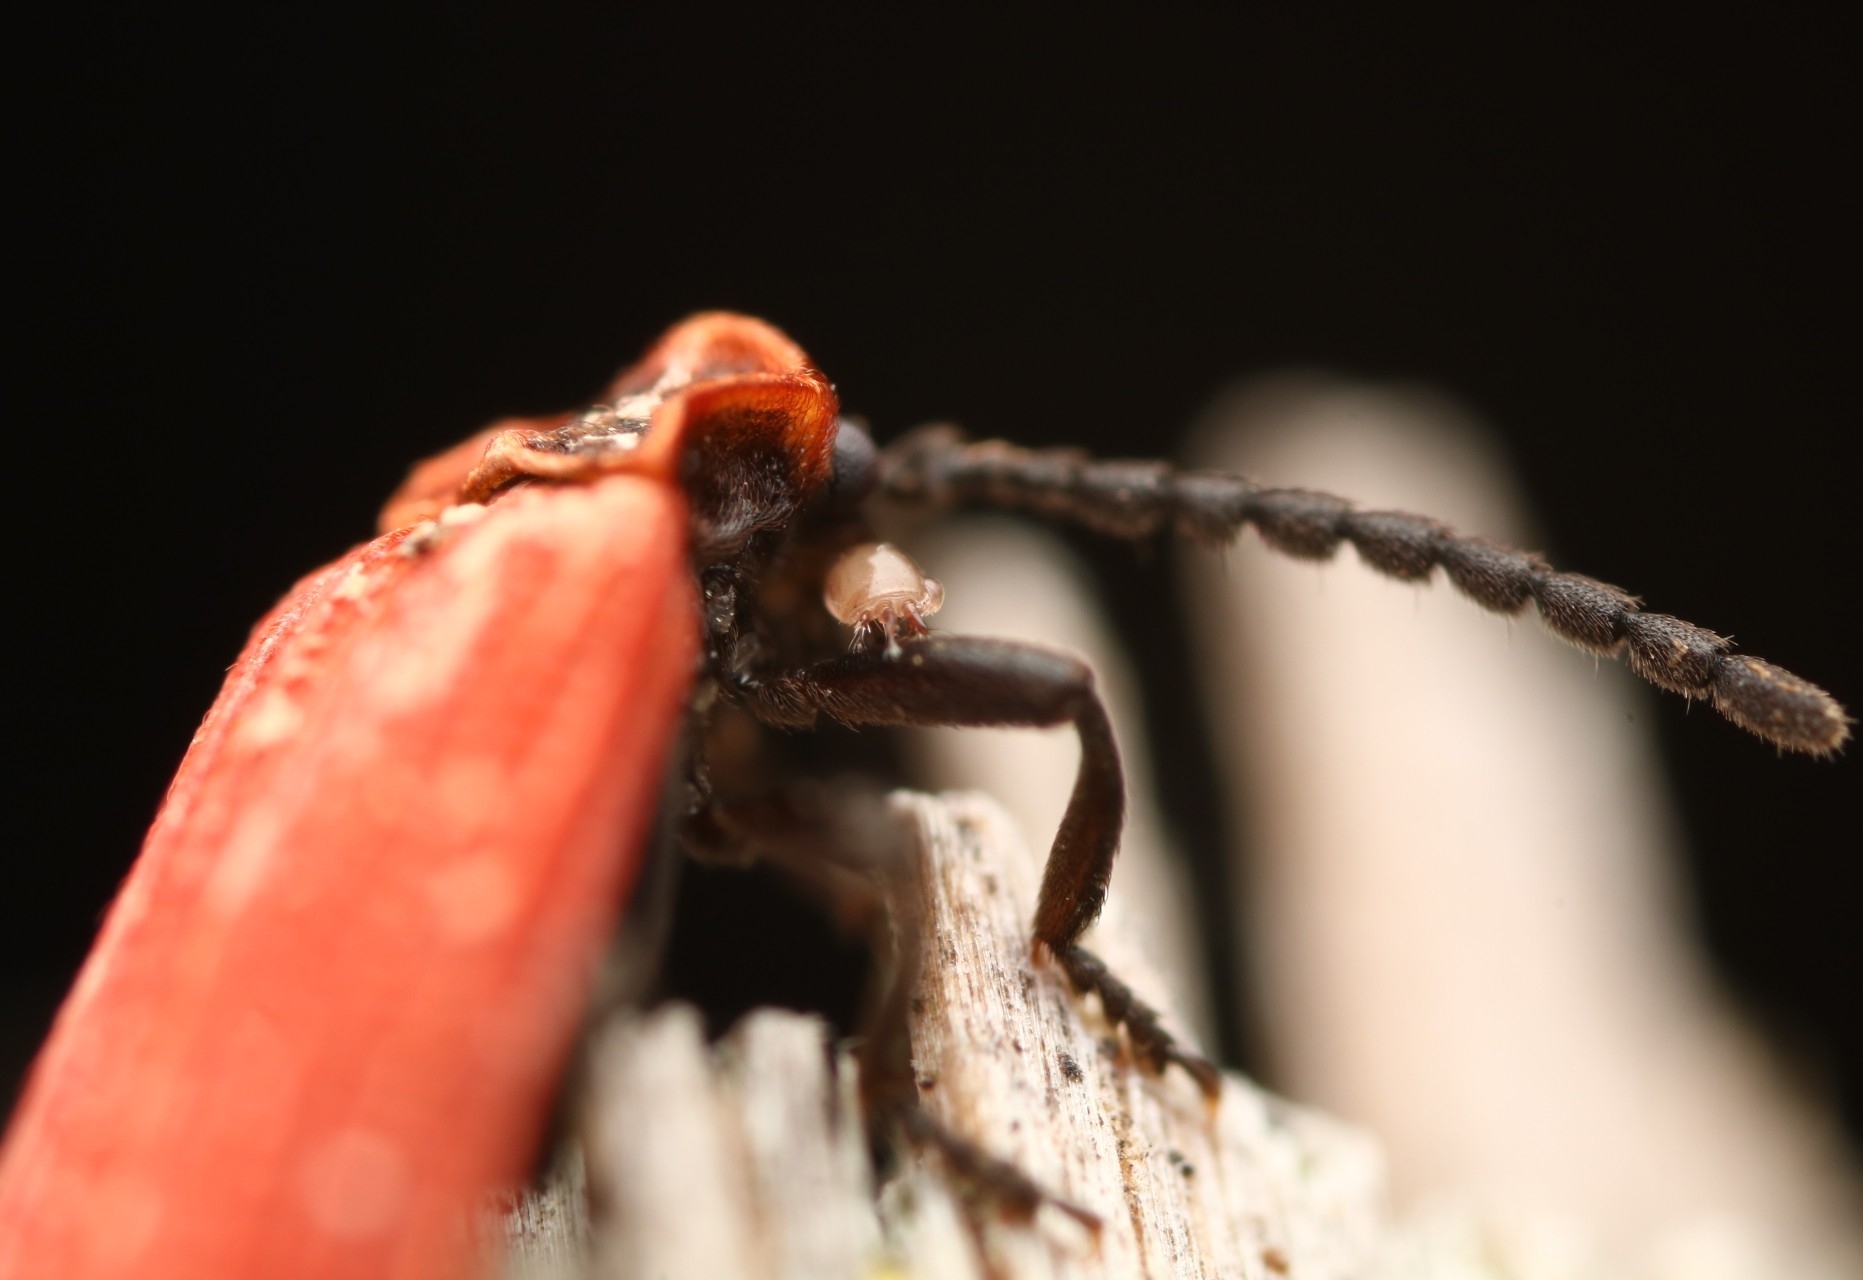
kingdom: Animalia
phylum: Arthropoda
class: Insecta
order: Coleoptera
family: Lycidae
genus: Dictyoptera
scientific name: Dictyoptera aurora
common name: Golden net-winged beetle
